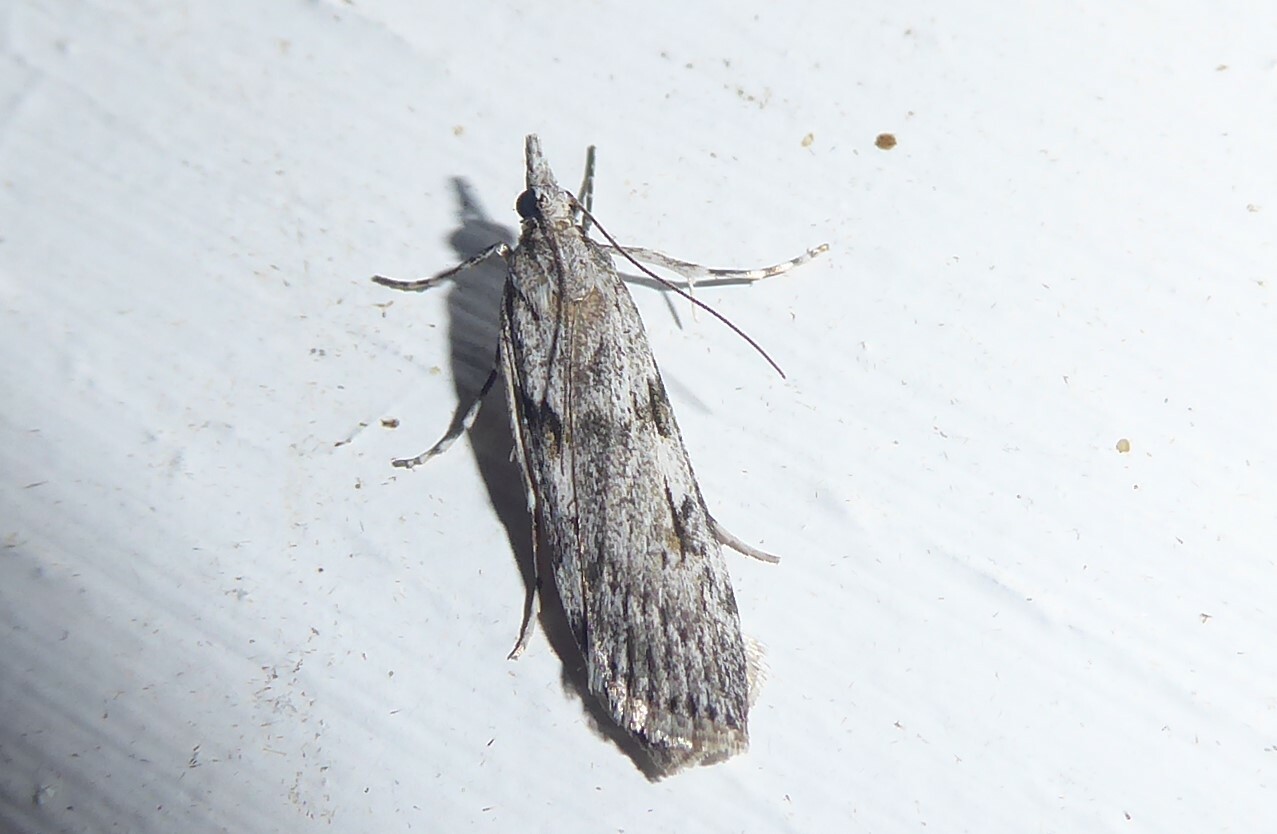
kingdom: Animalia
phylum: Arthropoda
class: Insecta
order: Lepidoptera
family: Crambidae
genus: Scoparia
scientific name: Scoparia halopis
